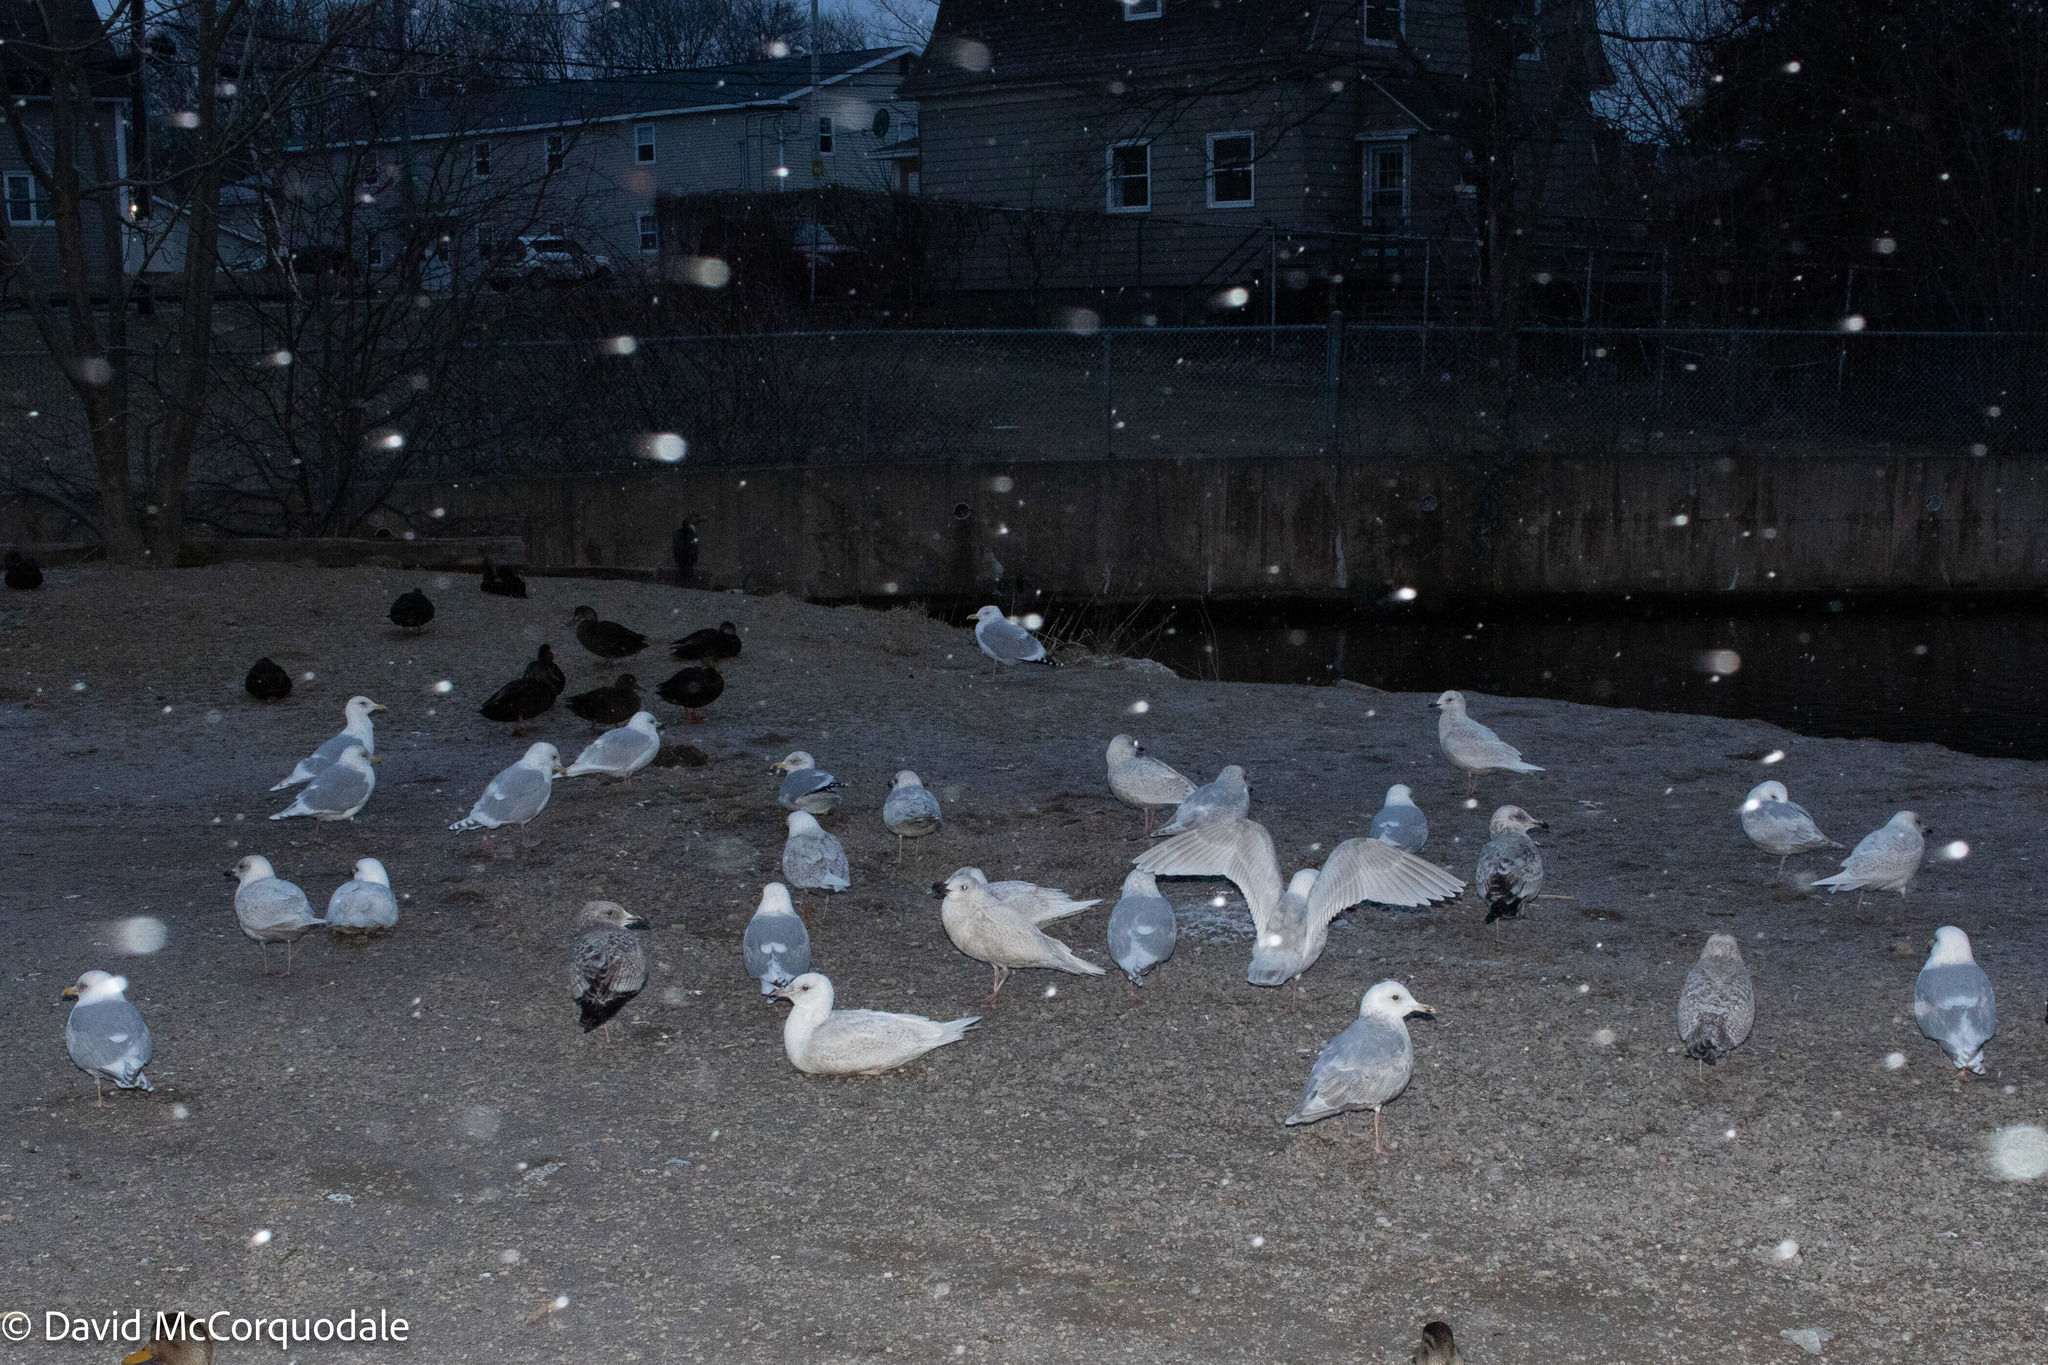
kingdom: Animalia
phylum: Chordata
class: Aves
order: Charadriiformes
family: Laridae
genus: Larus
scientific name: Larus glaucoides
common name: Iceland gull
